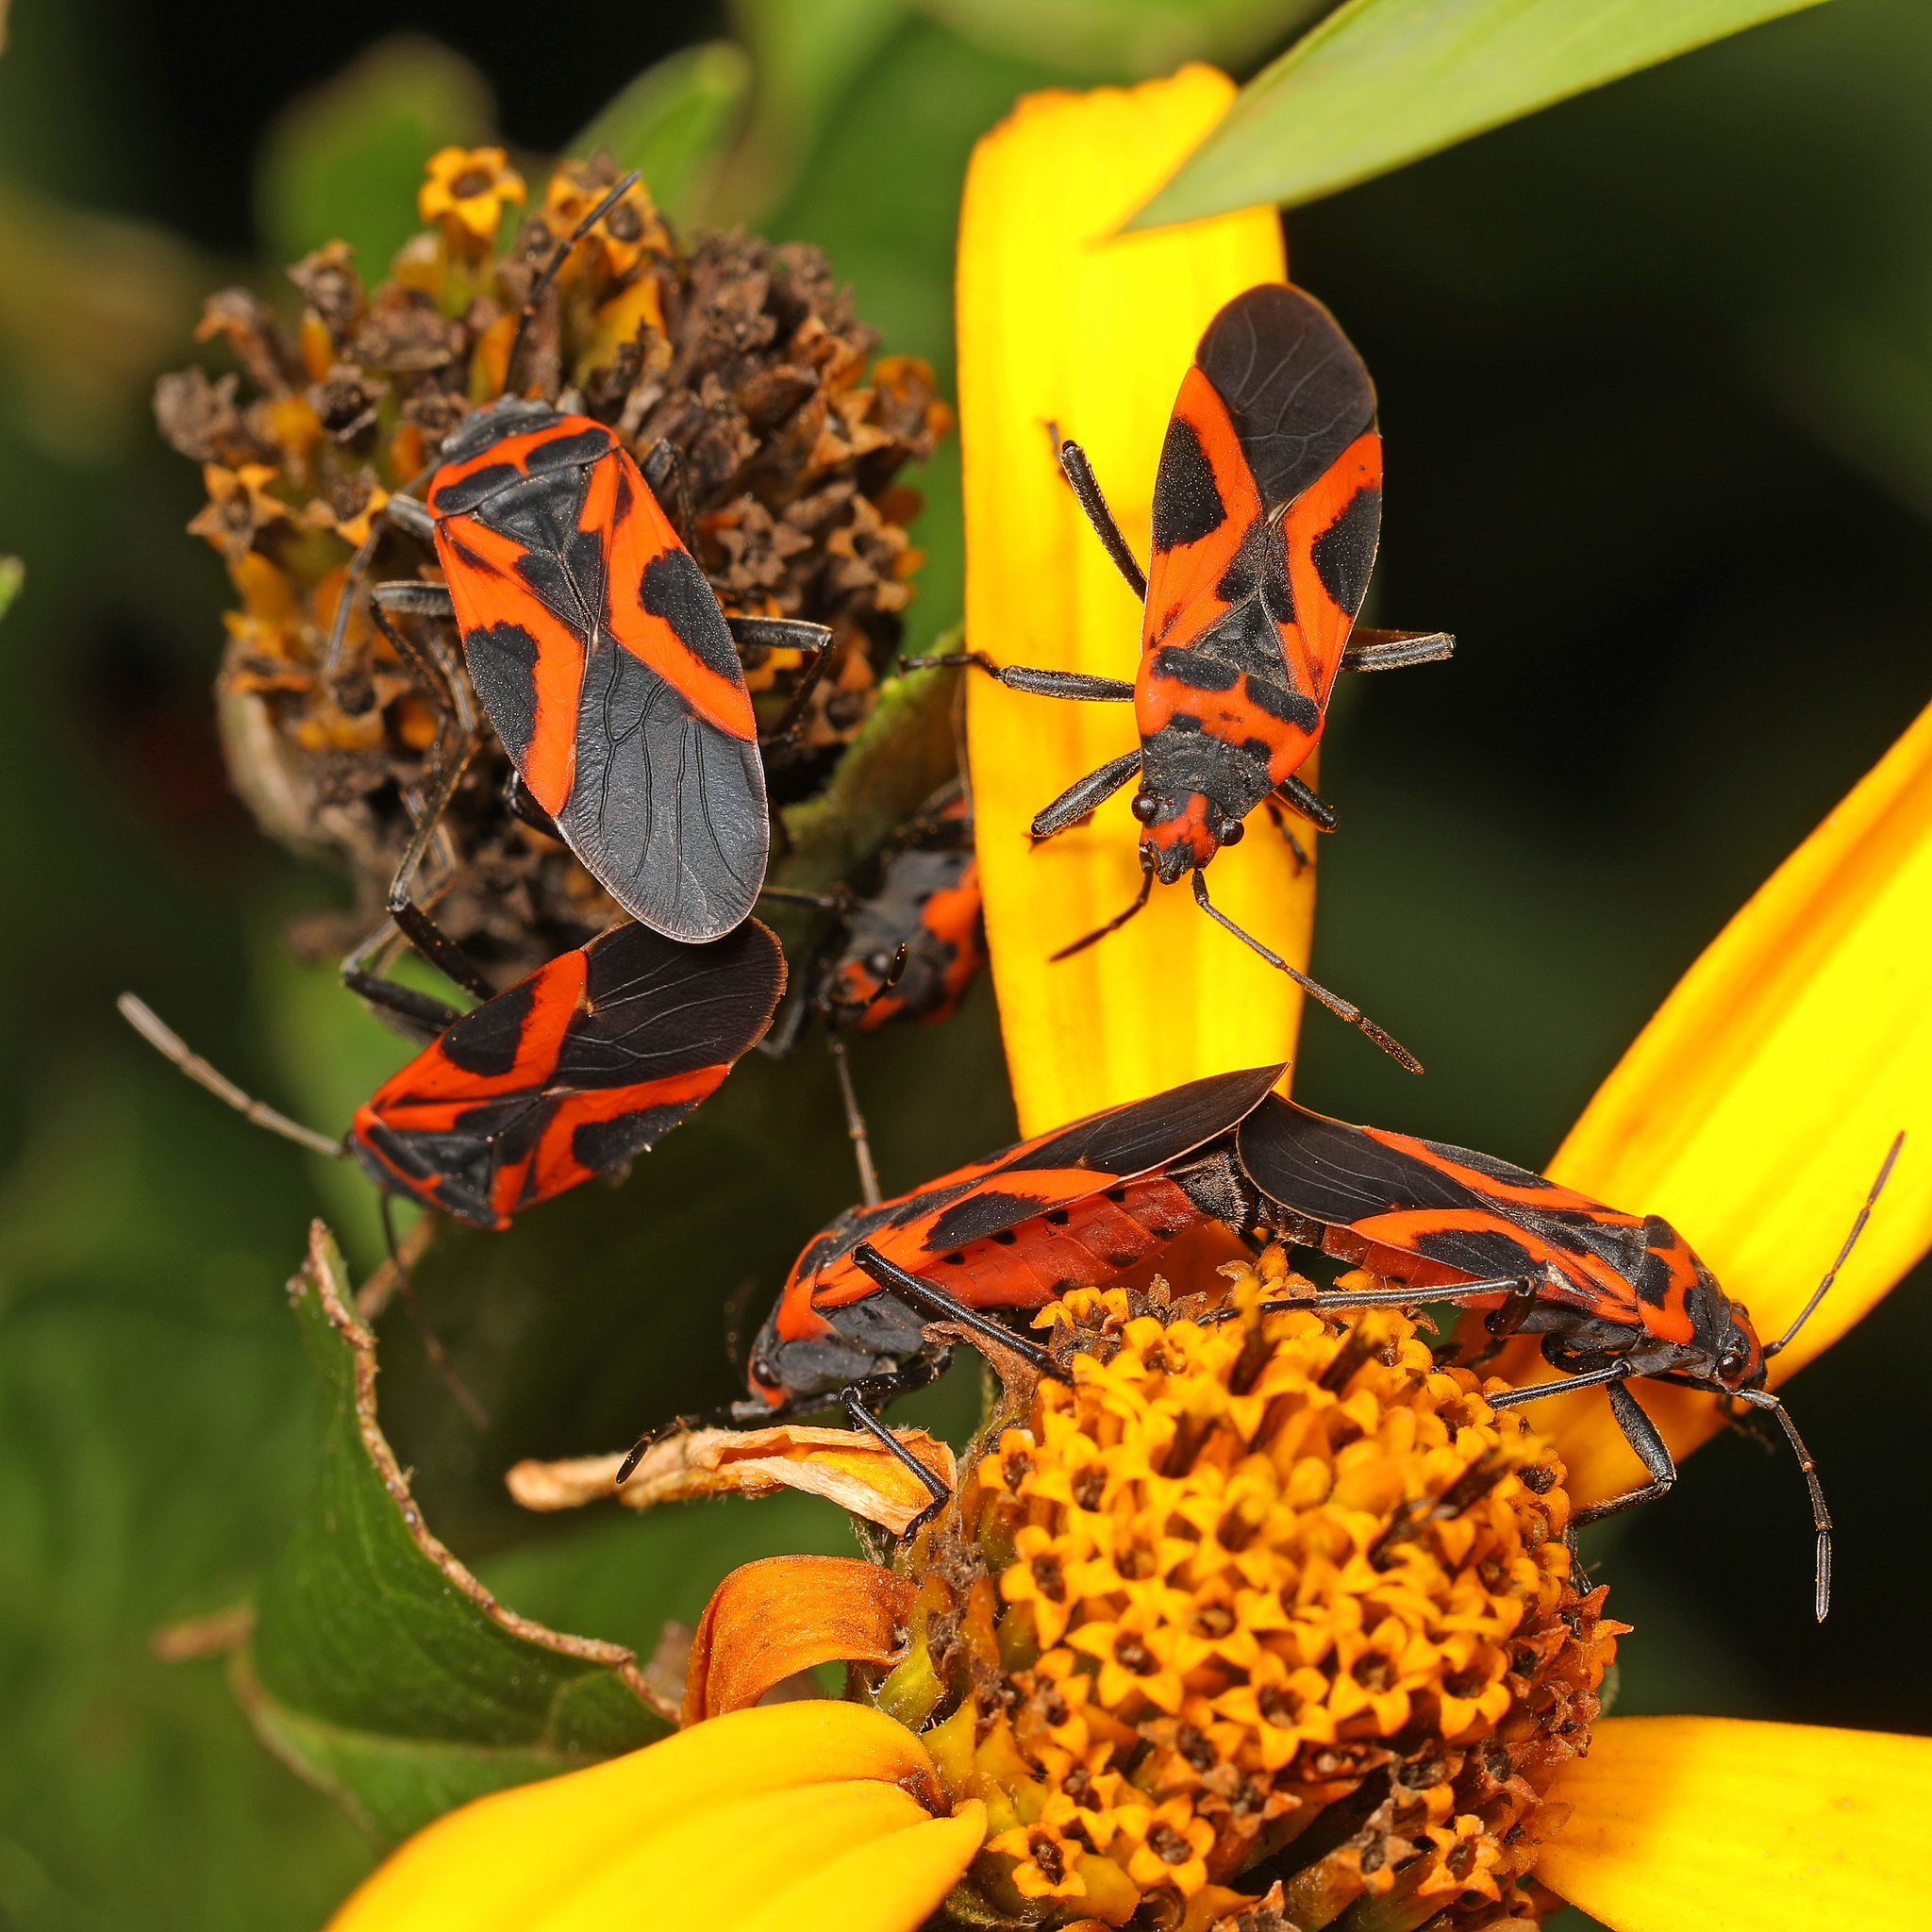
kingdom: Animalia
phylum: Arthropoda
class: Insecta
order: Hemiptera
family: Lygaeidae
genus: Lygaeus
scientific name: Lygaeus turcicus
